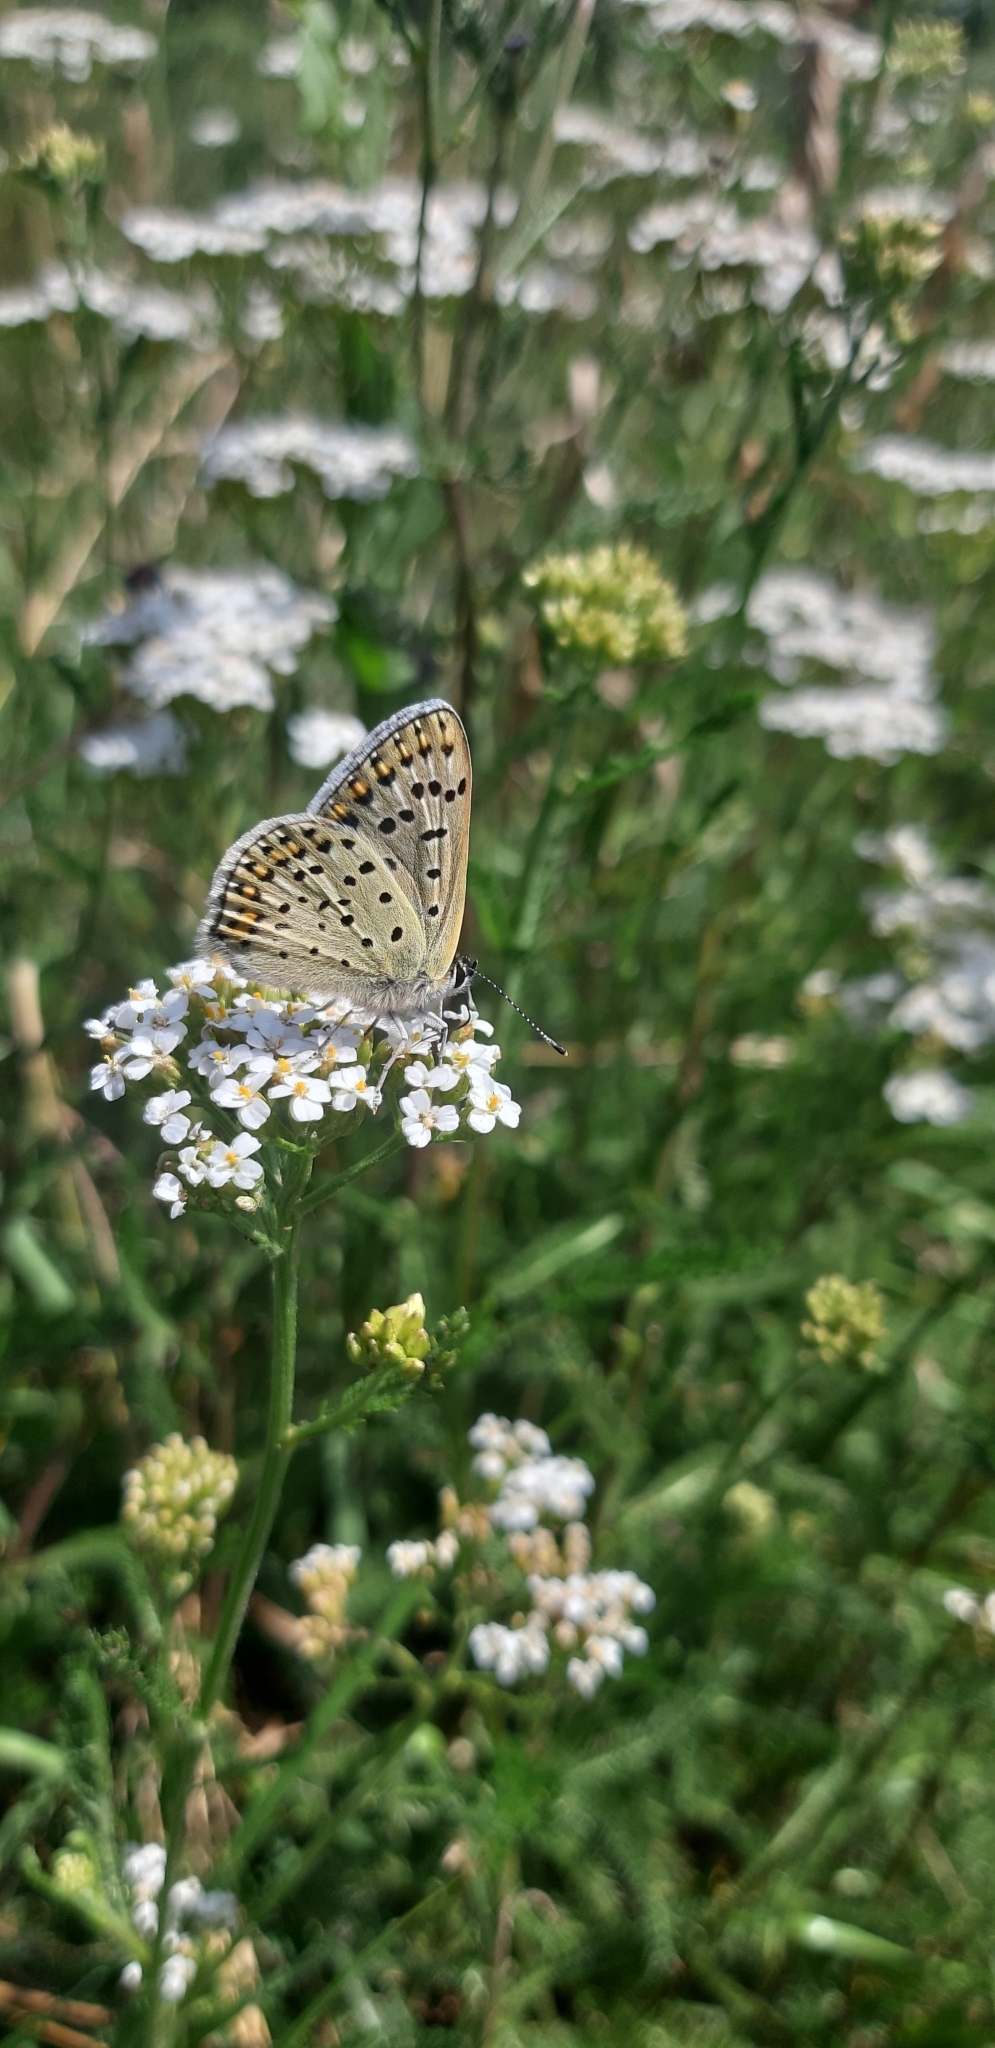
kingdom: Animalia
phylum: Arthropoda
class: Insecta
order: Lepidoptera
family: Lycaenidae
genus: Loweia
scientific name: Loweia tityrus
